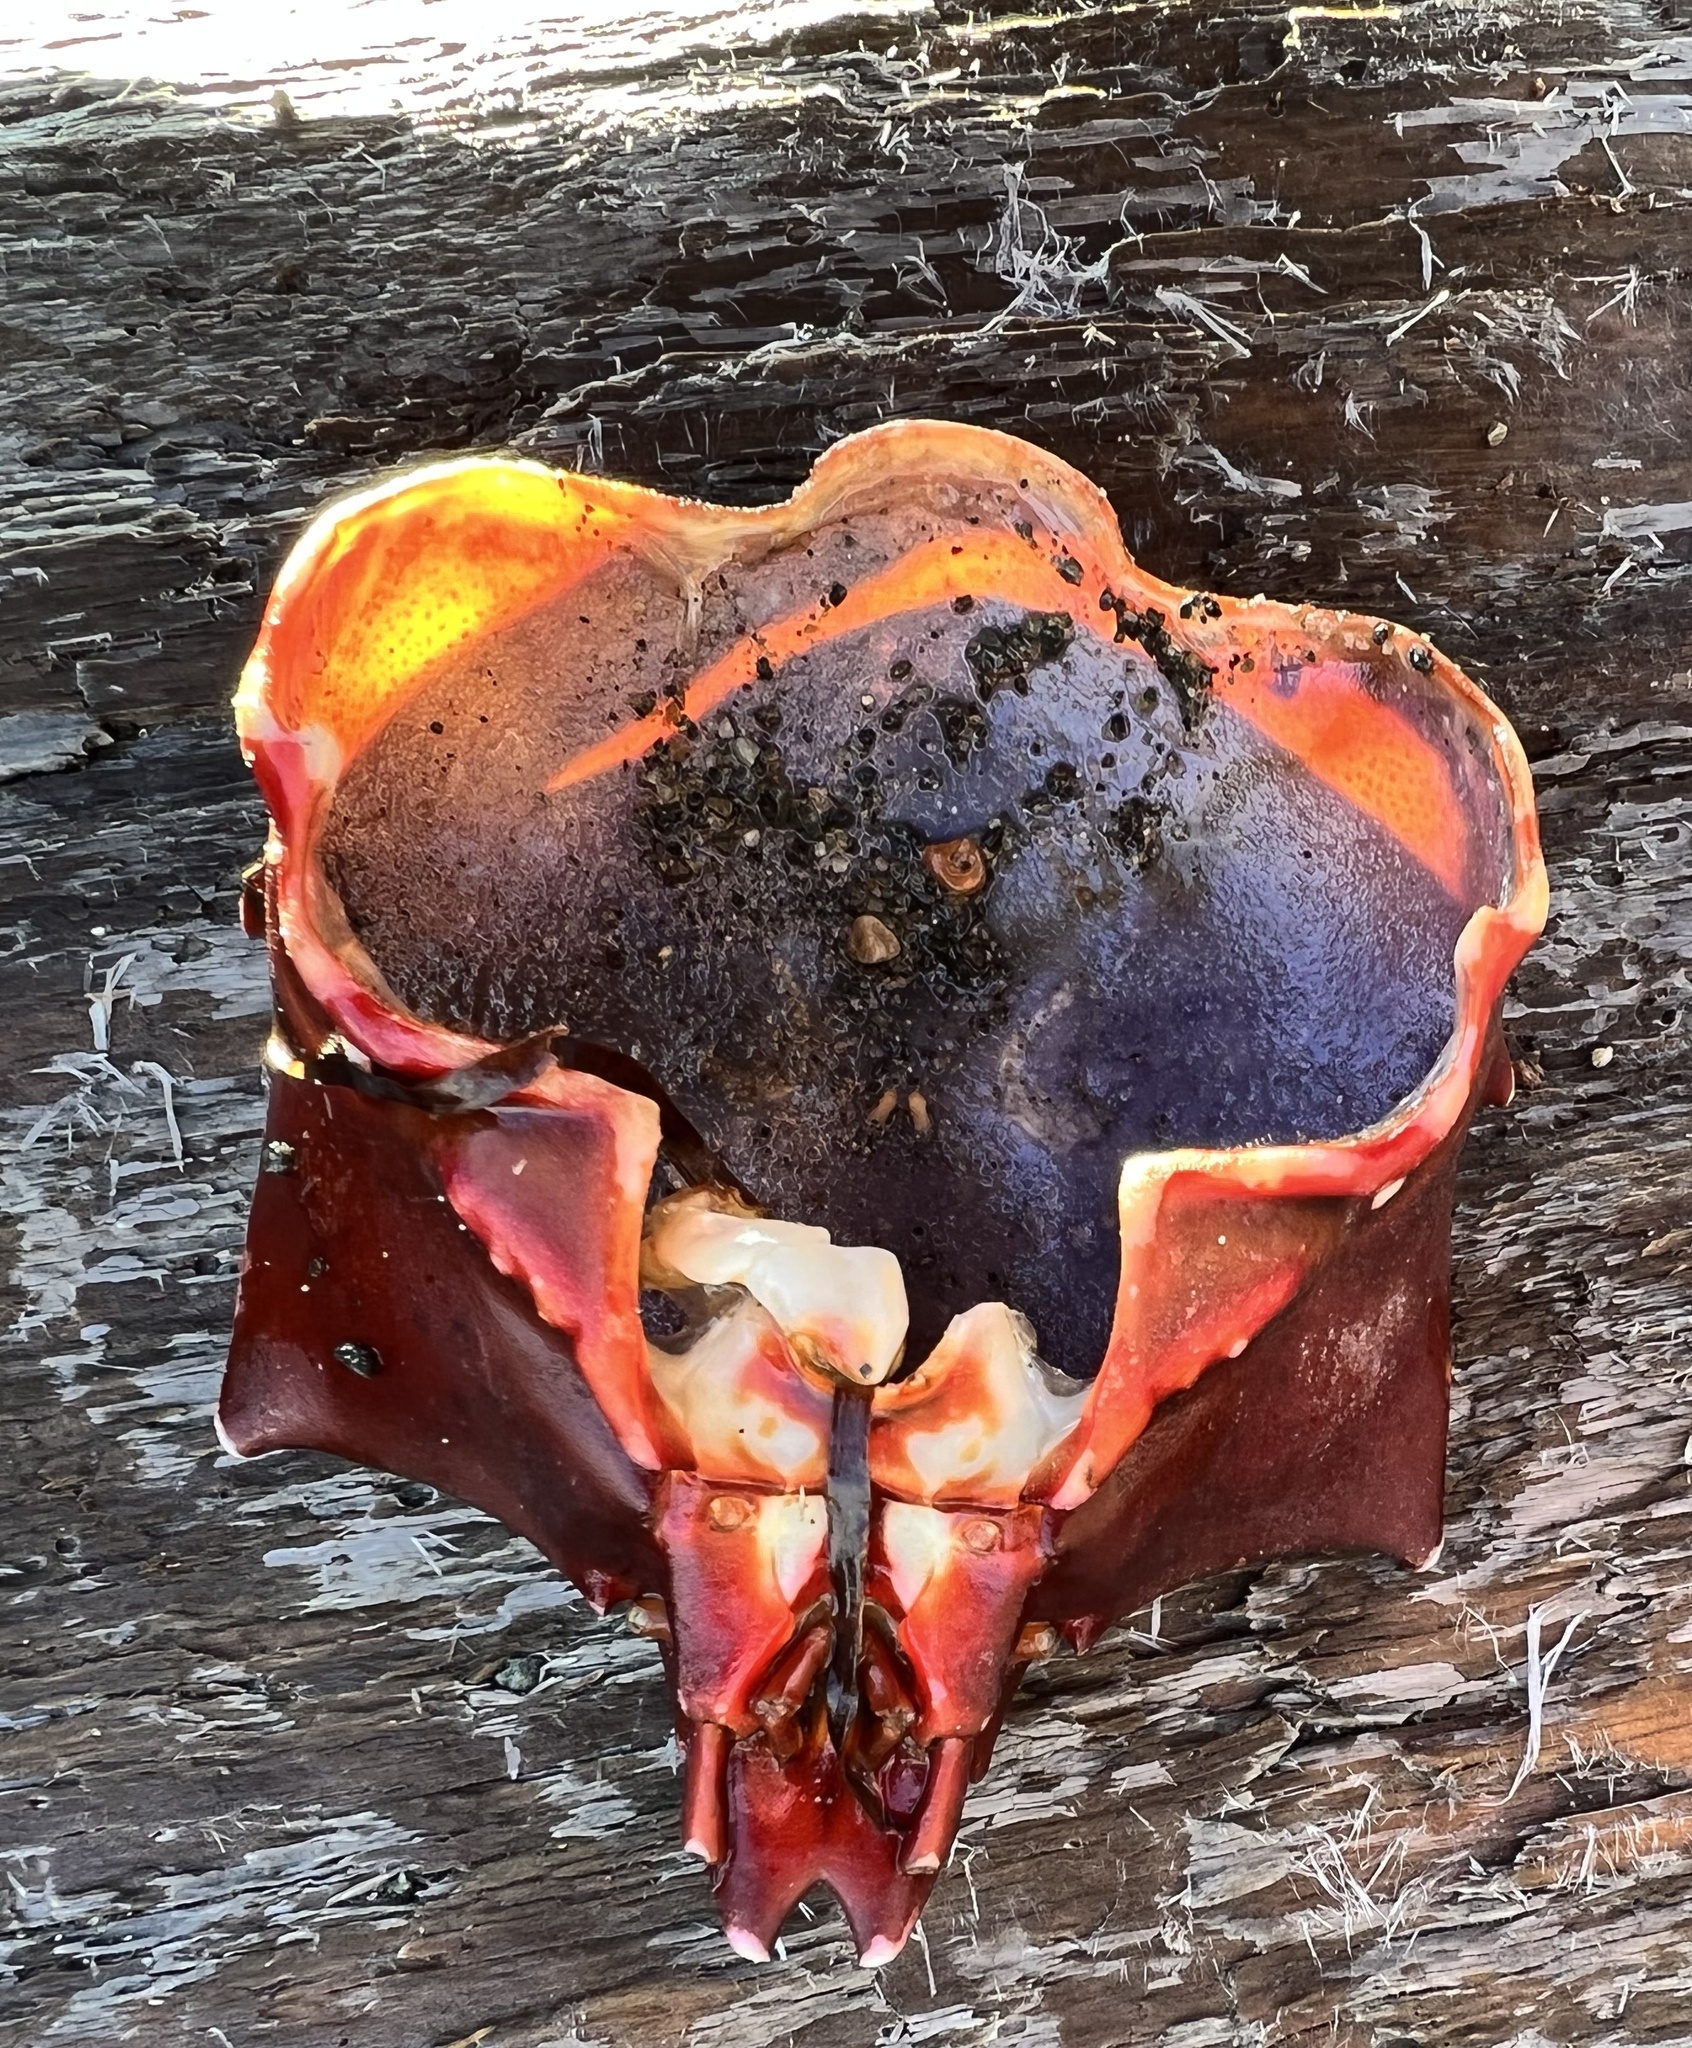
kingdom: Animalia
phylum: Arthropoda
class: Malacostraca
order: Decapoda
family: Epialtidae
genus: Pugettia
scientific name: Pugettia producta
